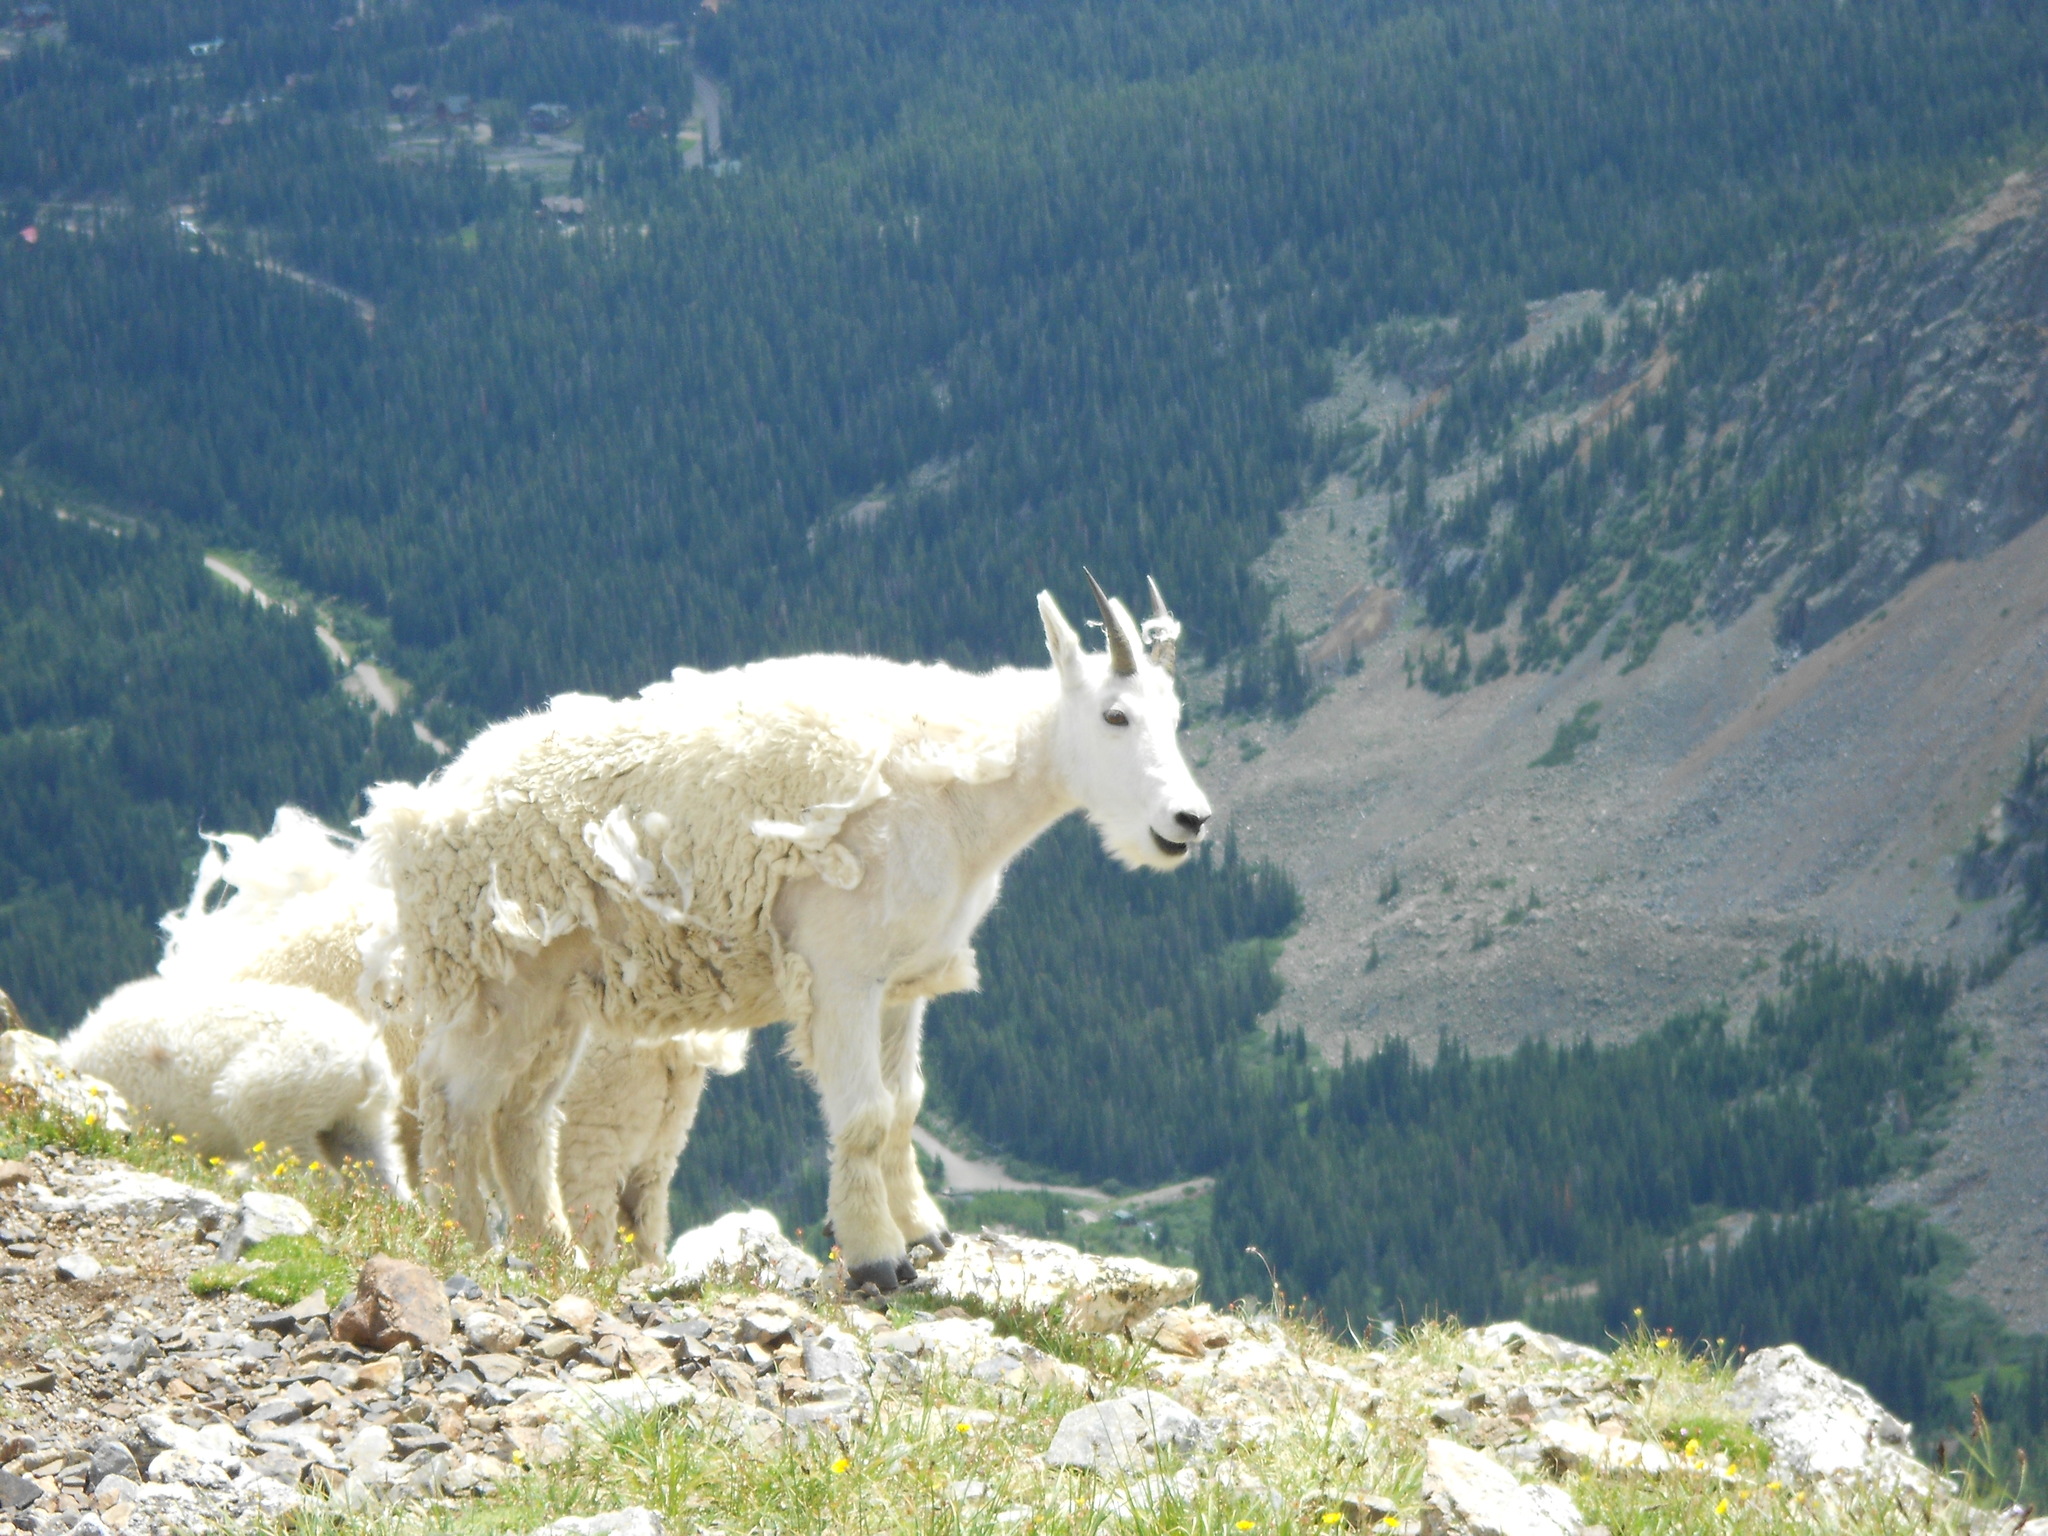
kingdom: Animalia
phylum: Chordata
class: Mammalia
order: Artiodactyla
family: Bovidae
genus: Oreamnos
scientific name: Oreamnos americanus
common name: Mountain goat
